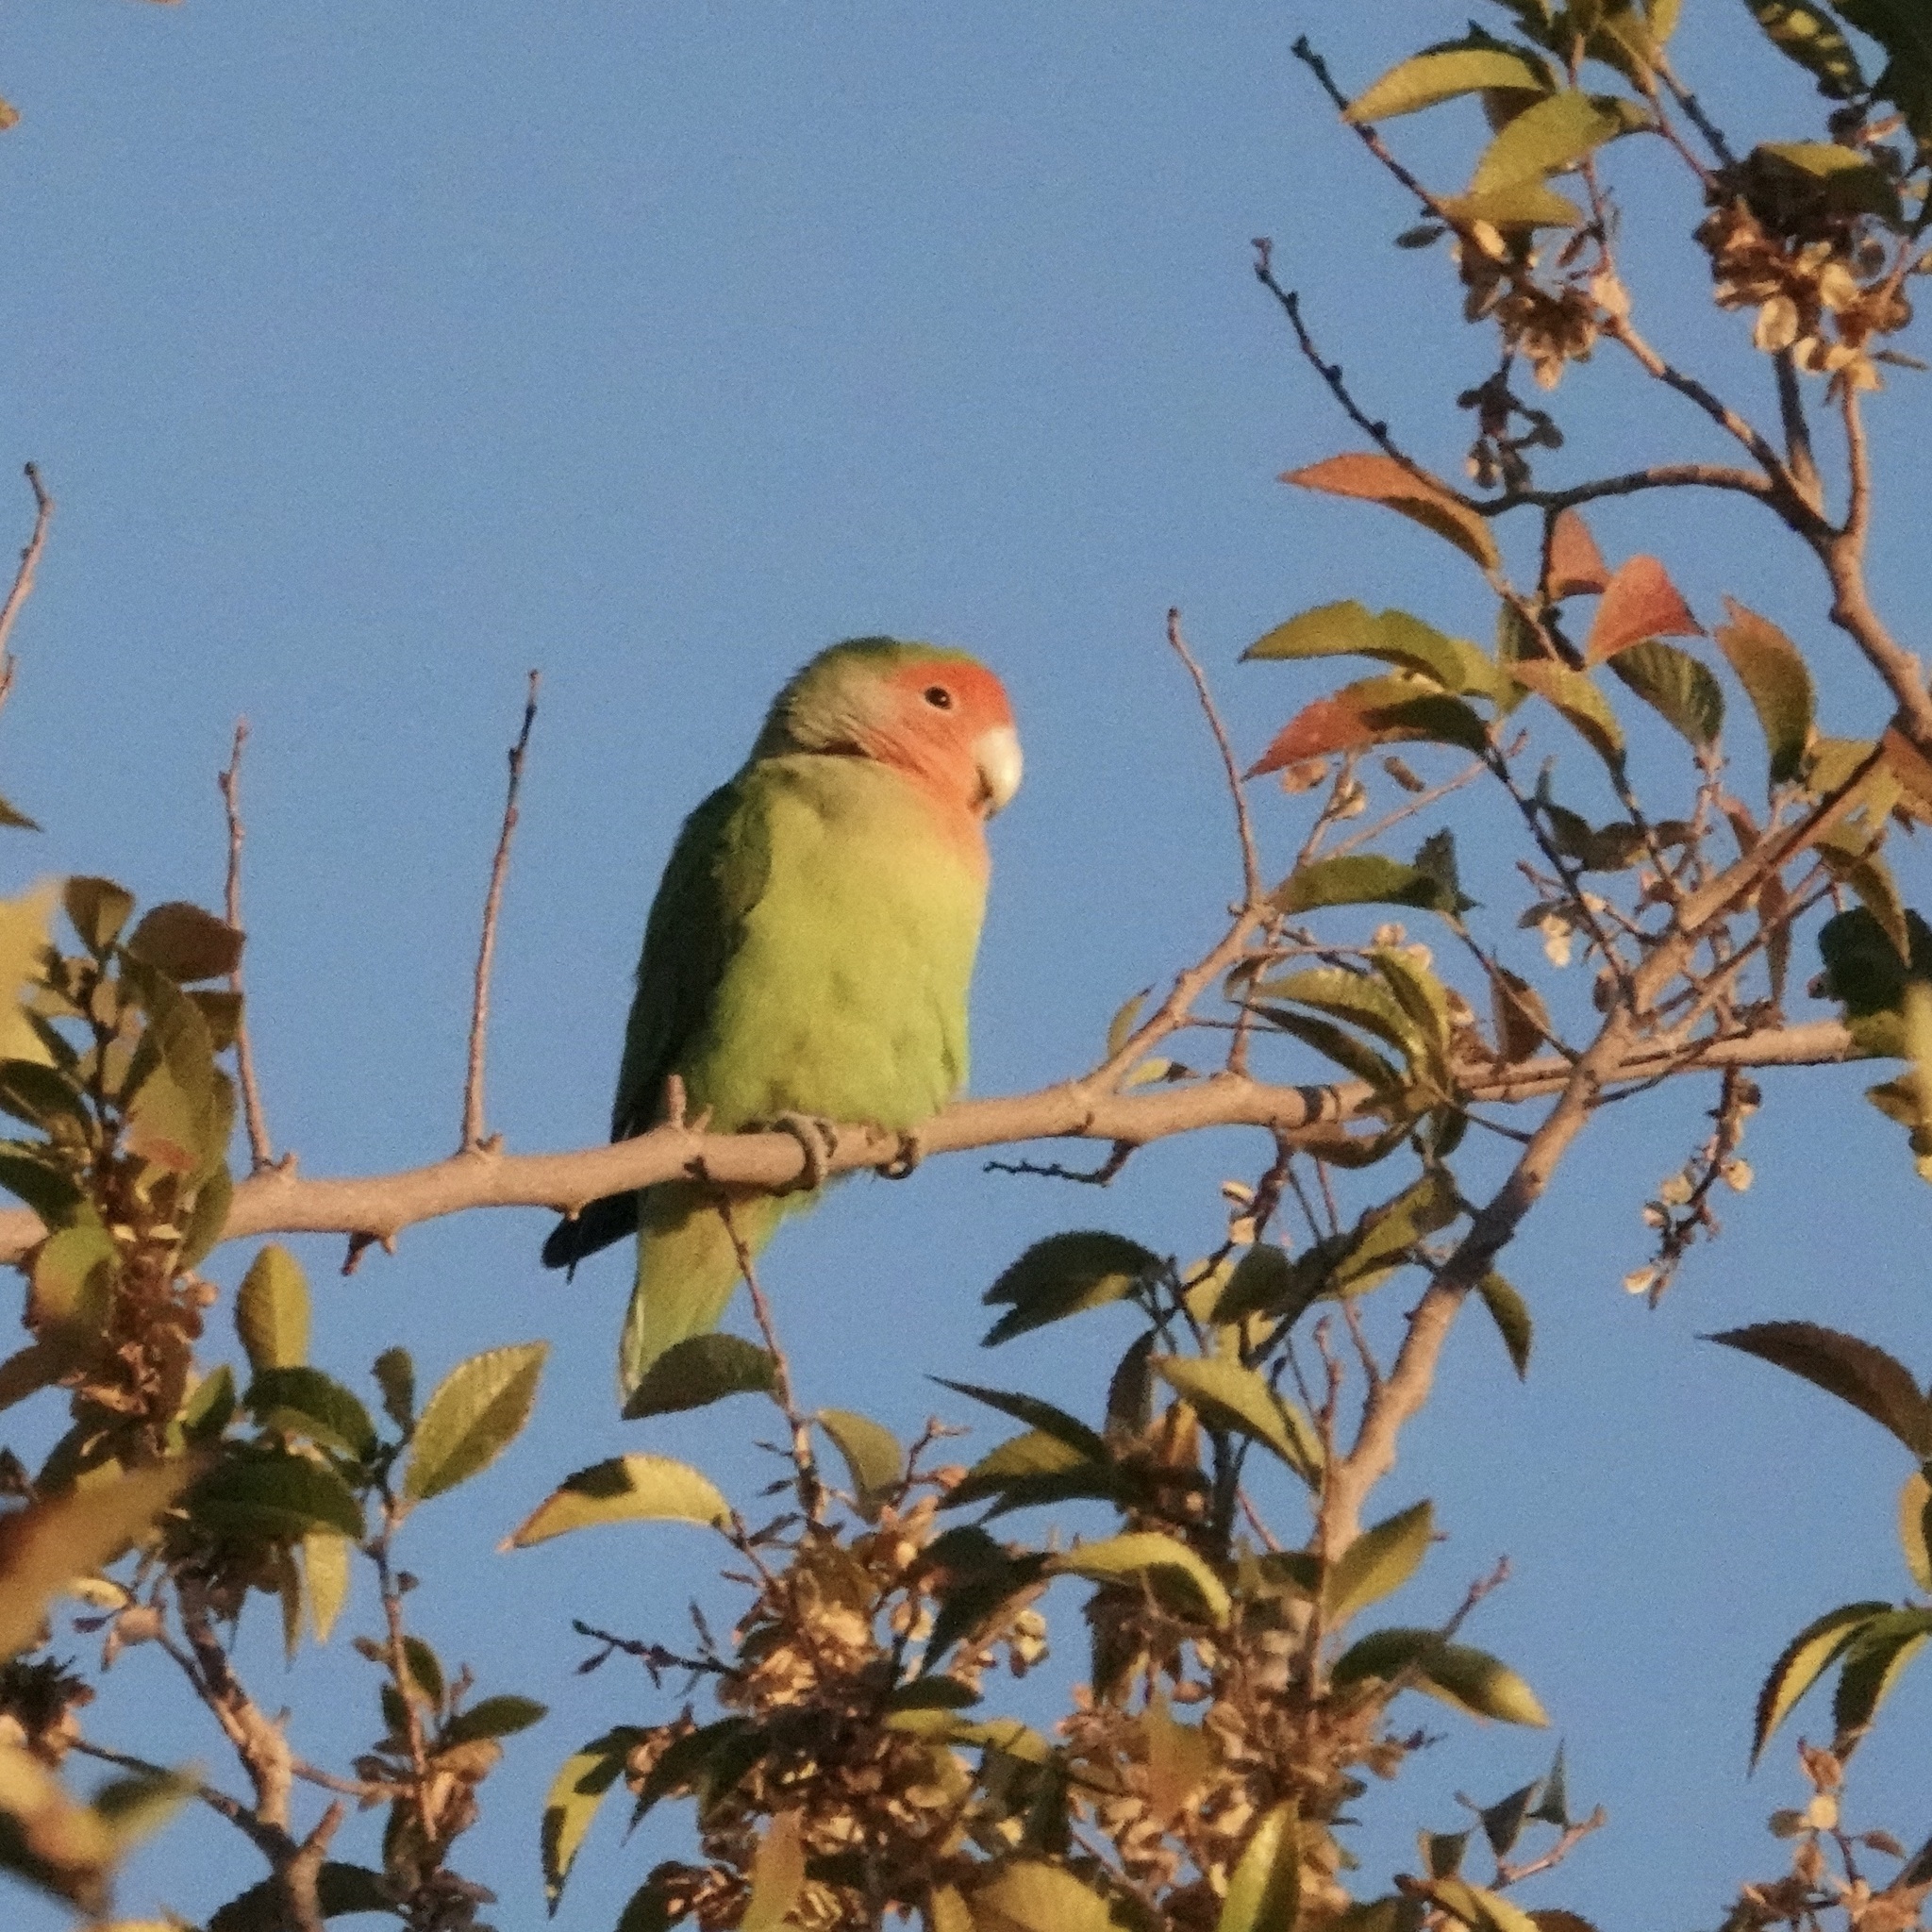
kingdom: Animalia
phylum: Chordata
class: Aves
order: Psittaciformes
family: Psittacidae
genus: Agapornis
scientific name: Agapornis roseicollis
